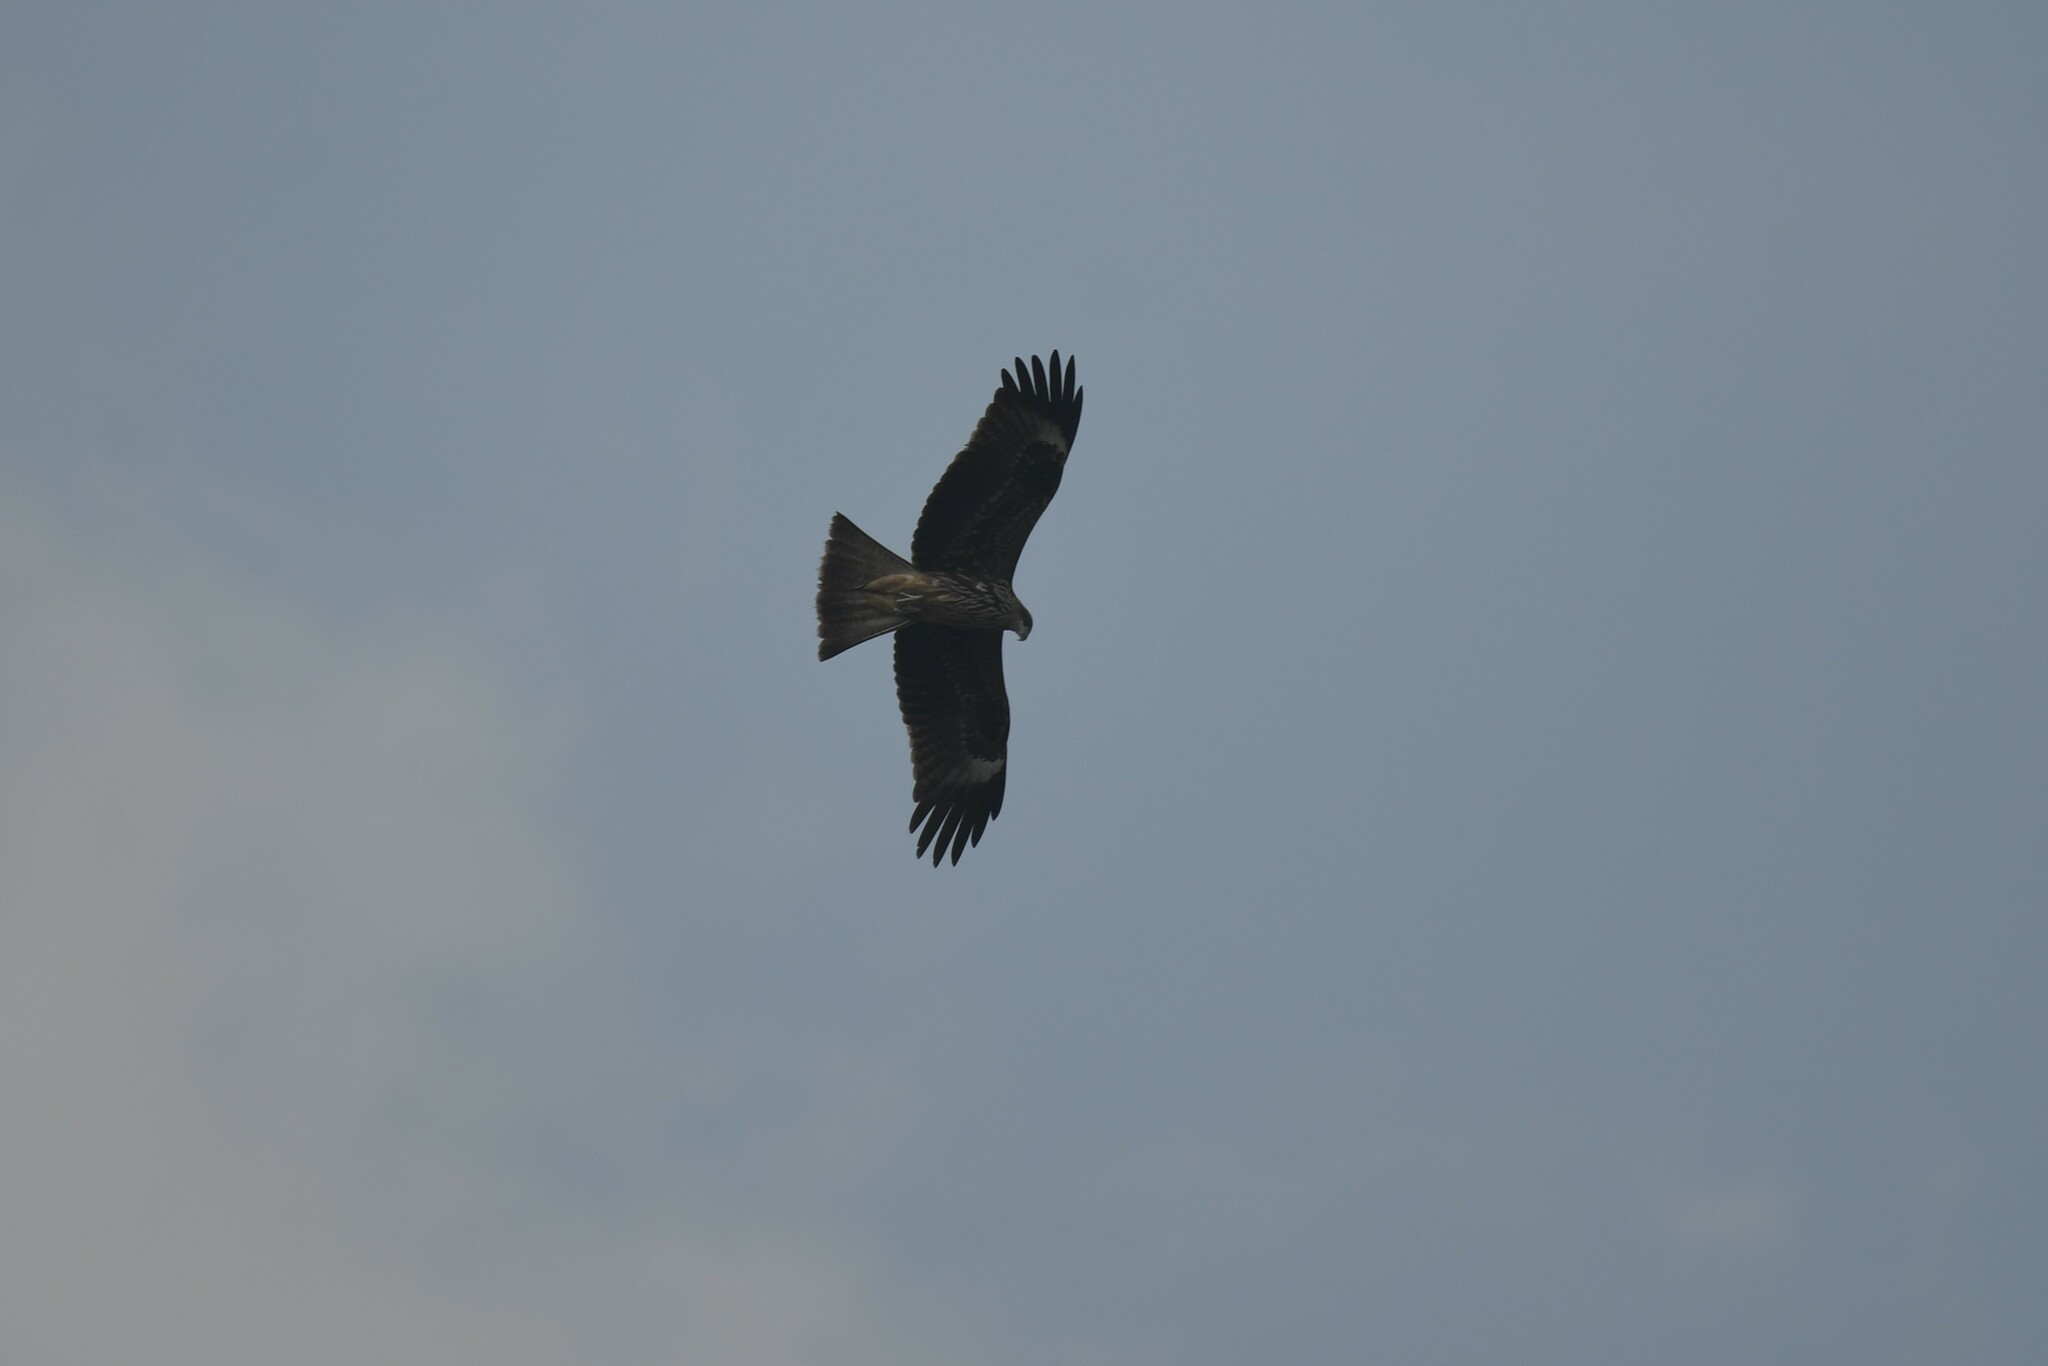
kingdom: Animalia
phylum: Chordata
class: Aves
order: Accipitriformes
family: Accipitridae
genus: Milvus
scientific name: Milvus migrans
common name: Black kite
